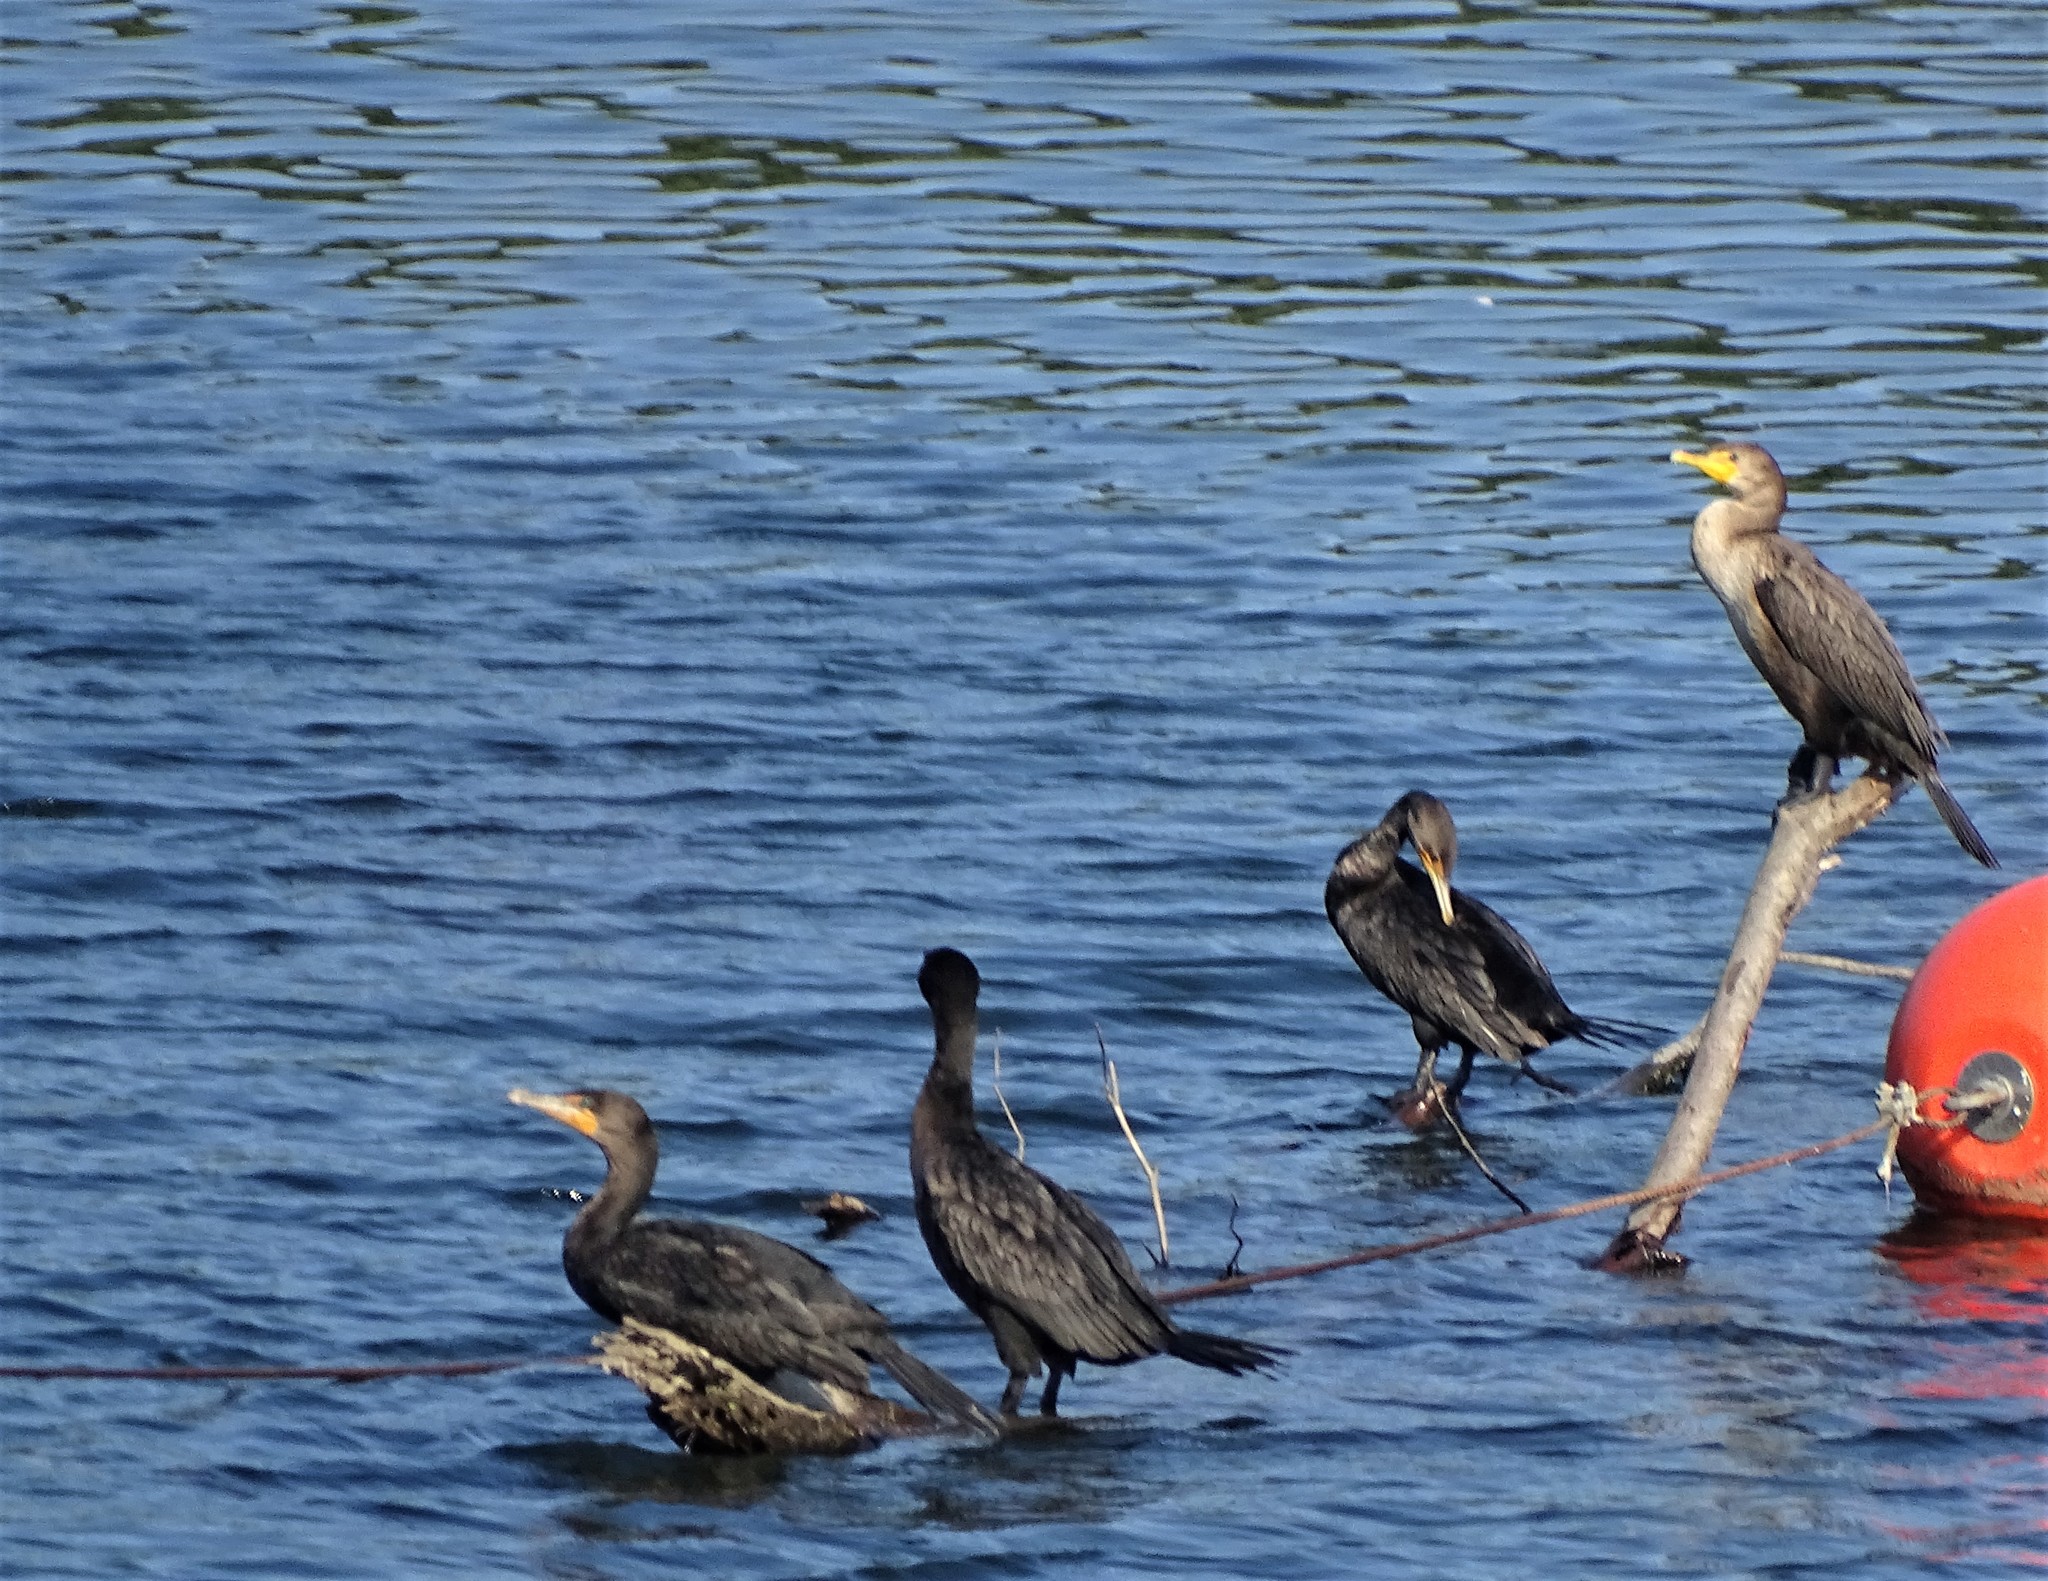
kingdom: Animalia
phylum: Chordata
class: Aves
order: Suliformes
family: Phalacrocoracidae
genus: Phalacrocorax
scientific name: Phalacrocorax auritus
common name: Double-crested cormorant
